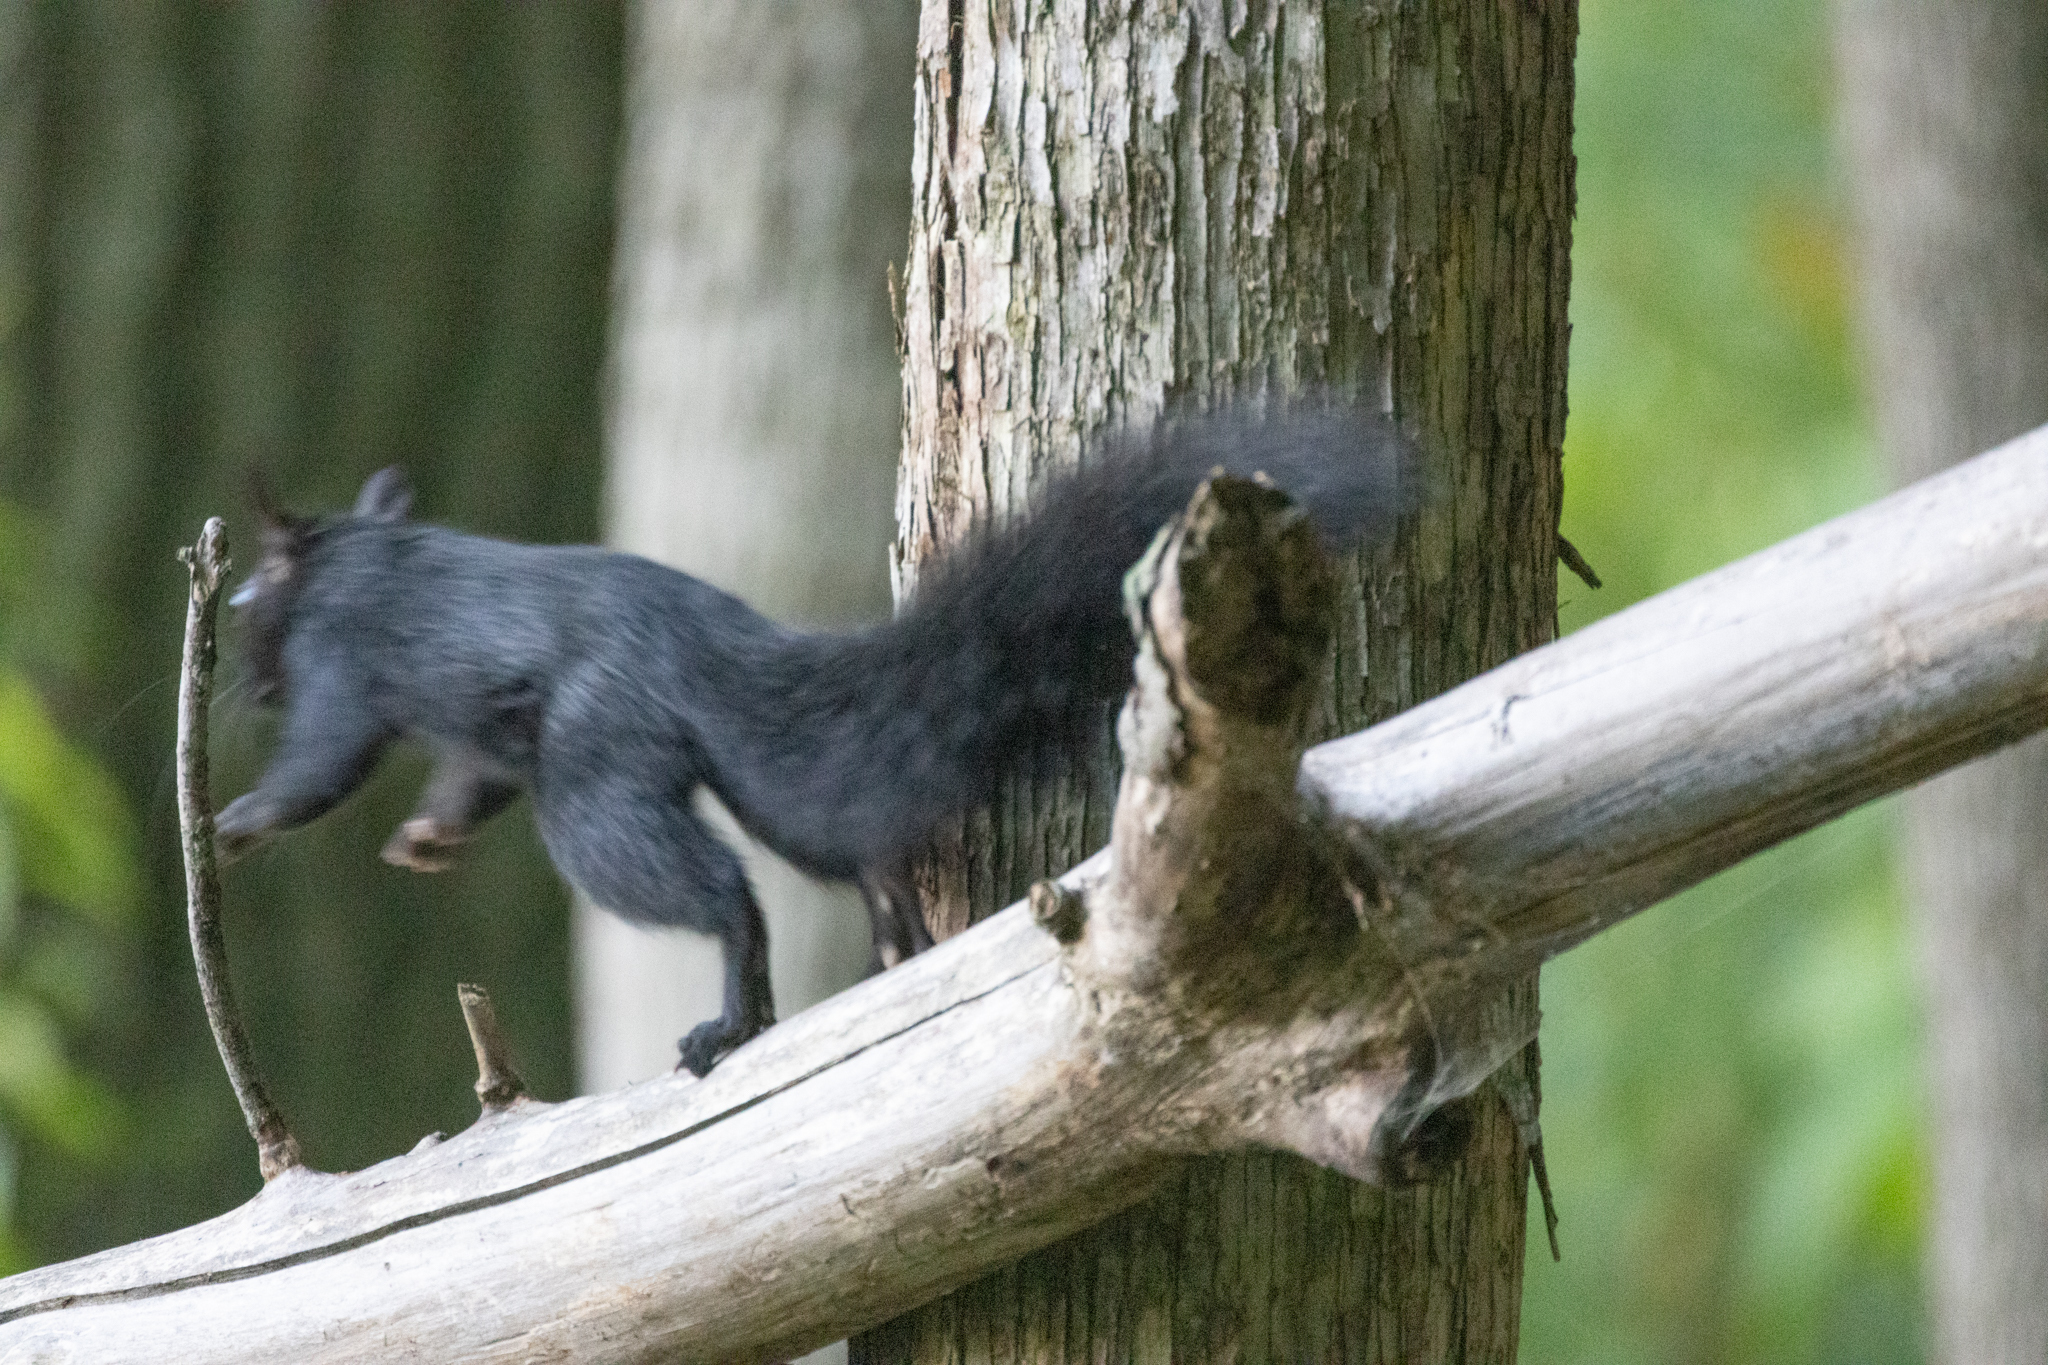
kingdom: Animalia
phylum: Chordata
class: Mammalia
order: Rodentia
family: Sciuridae
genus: Sciurus
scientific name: Sciurus carolinensis
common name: Eastern gray squirrel
